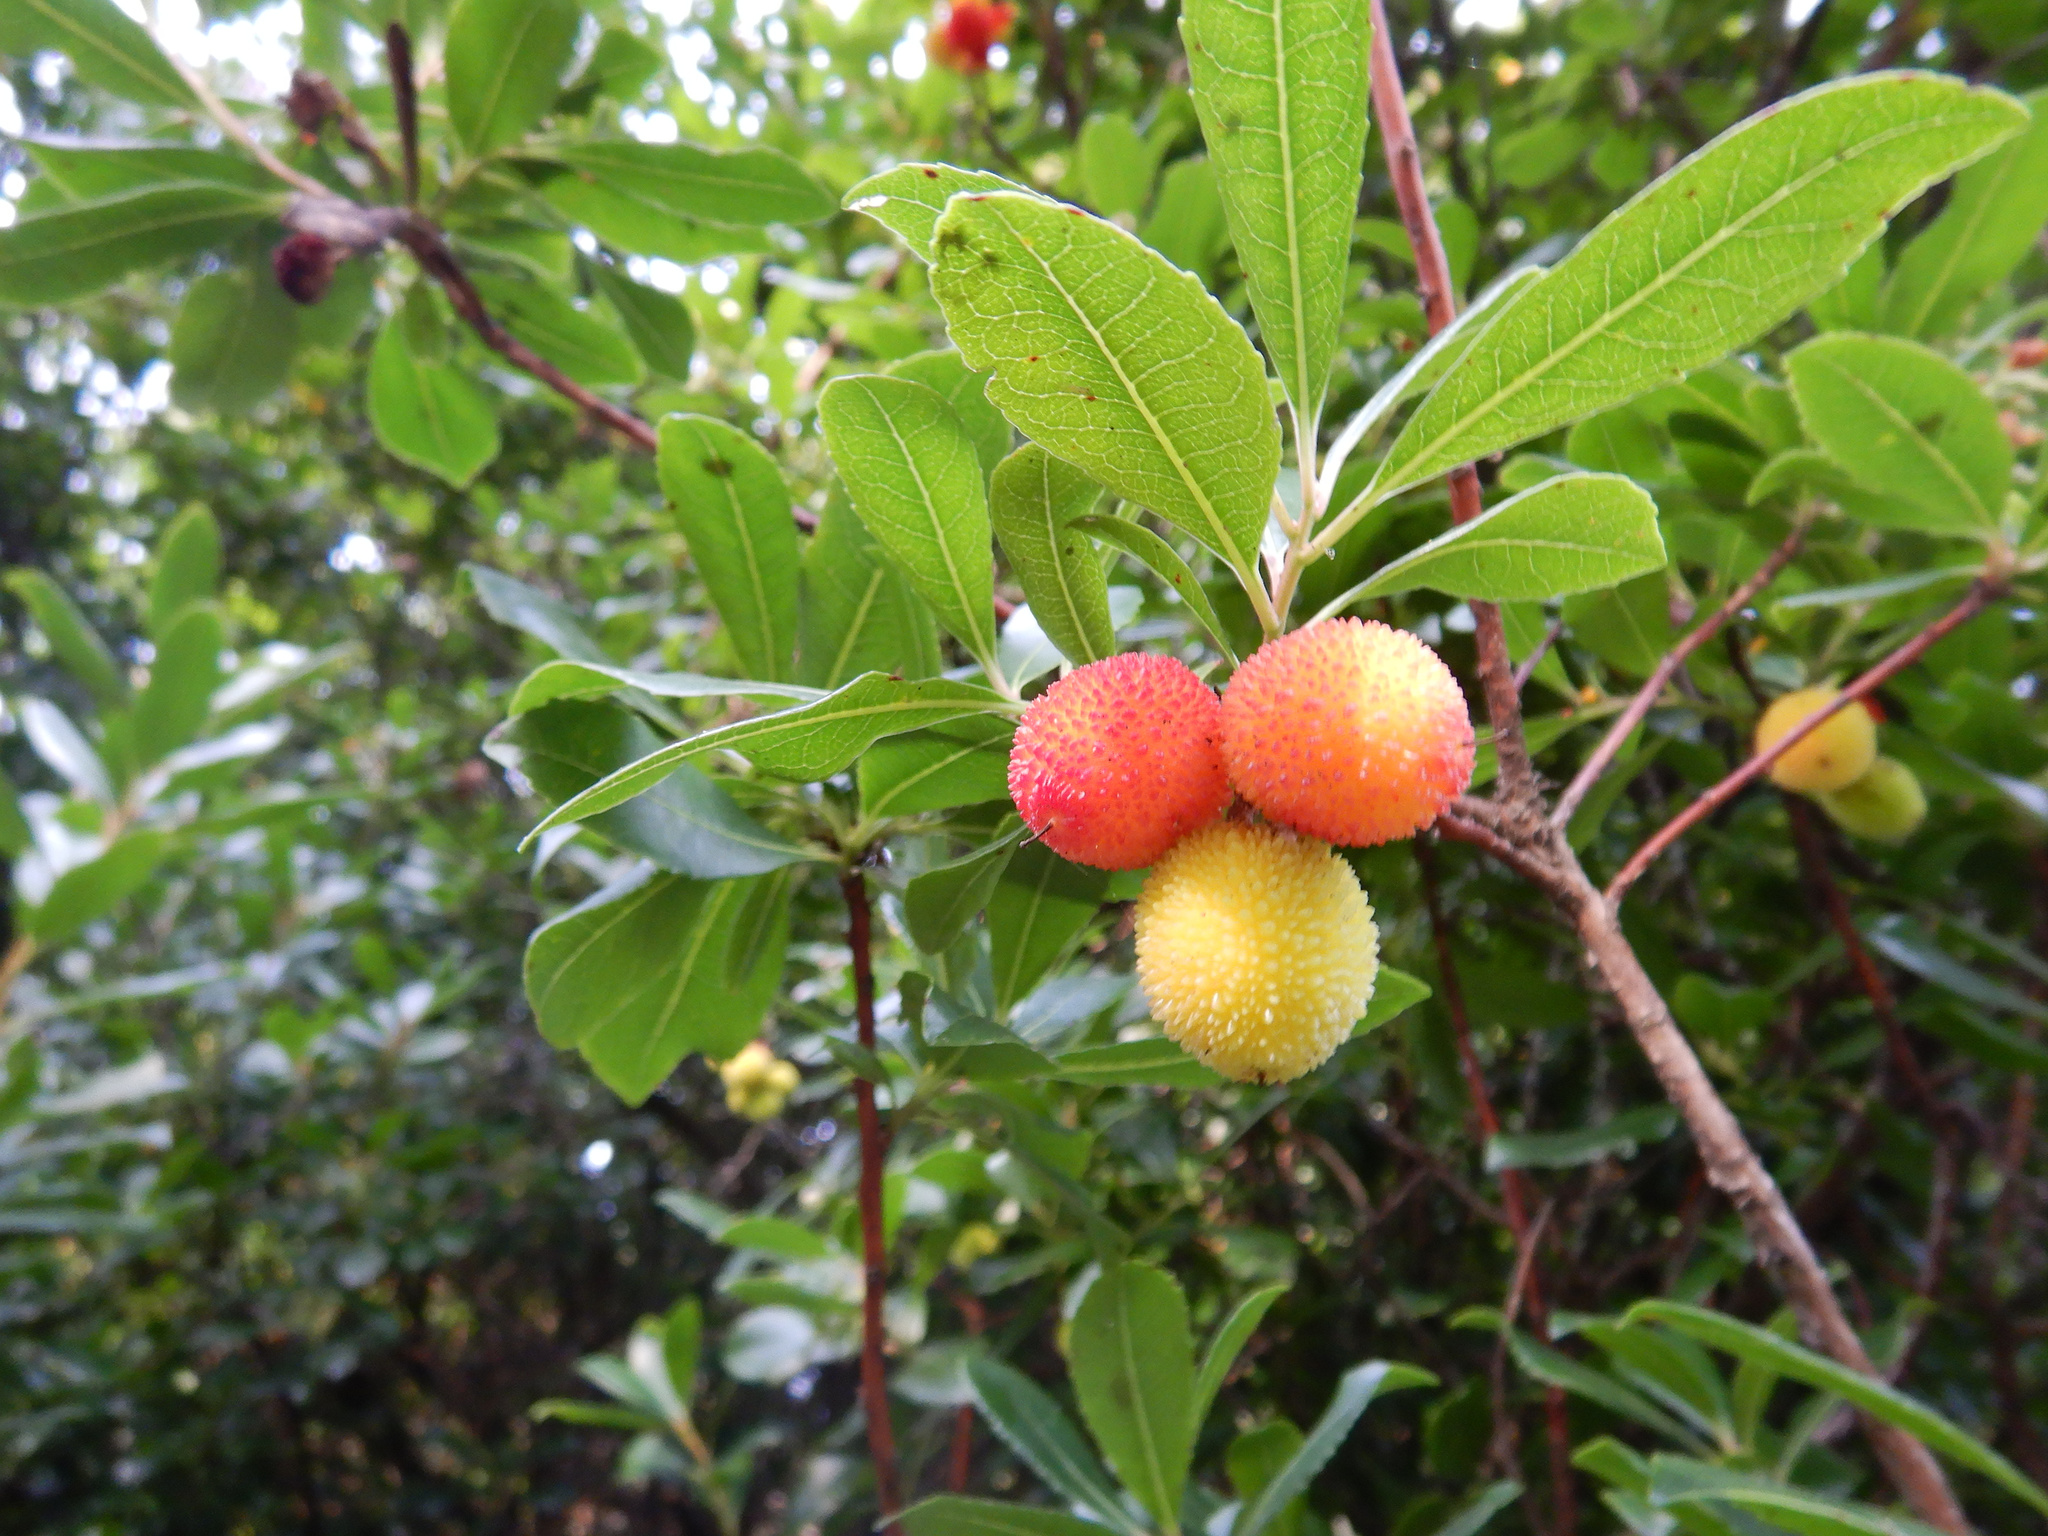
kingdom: Plantae
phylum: Tracheophyta
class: Magnoliopsida
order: Ericales
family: Ericaceae
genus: Arbutus
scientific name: Arbutus unedo
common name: Strawberry-tree
